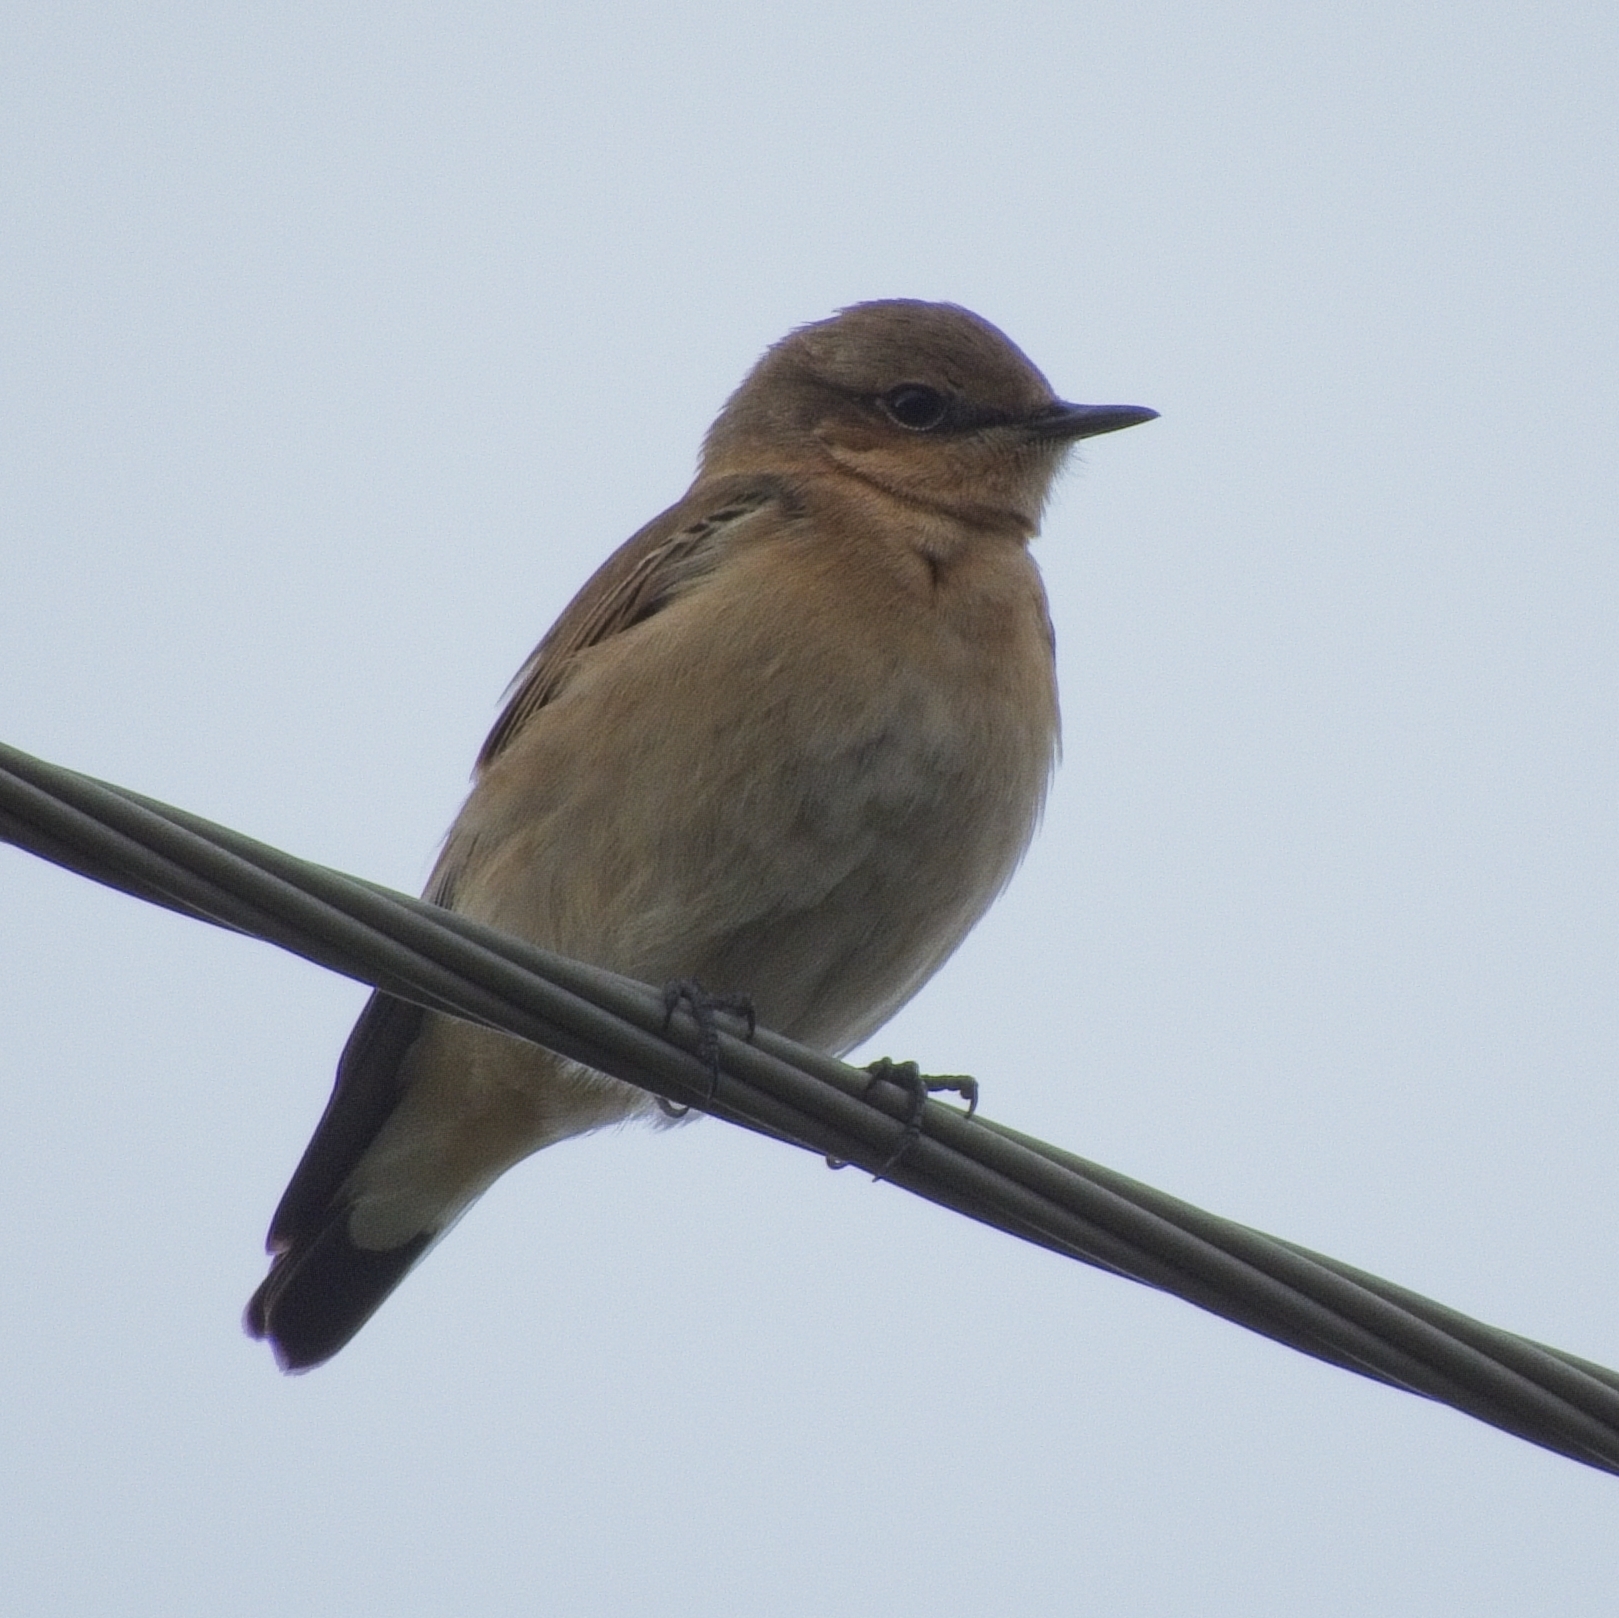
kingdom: Animalia
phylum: Chordata
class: Aves
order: Passeriformes
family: Muscicapidae
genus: Oenanthe
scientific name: Oenanthe oenanthe
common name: Northern wheatear
